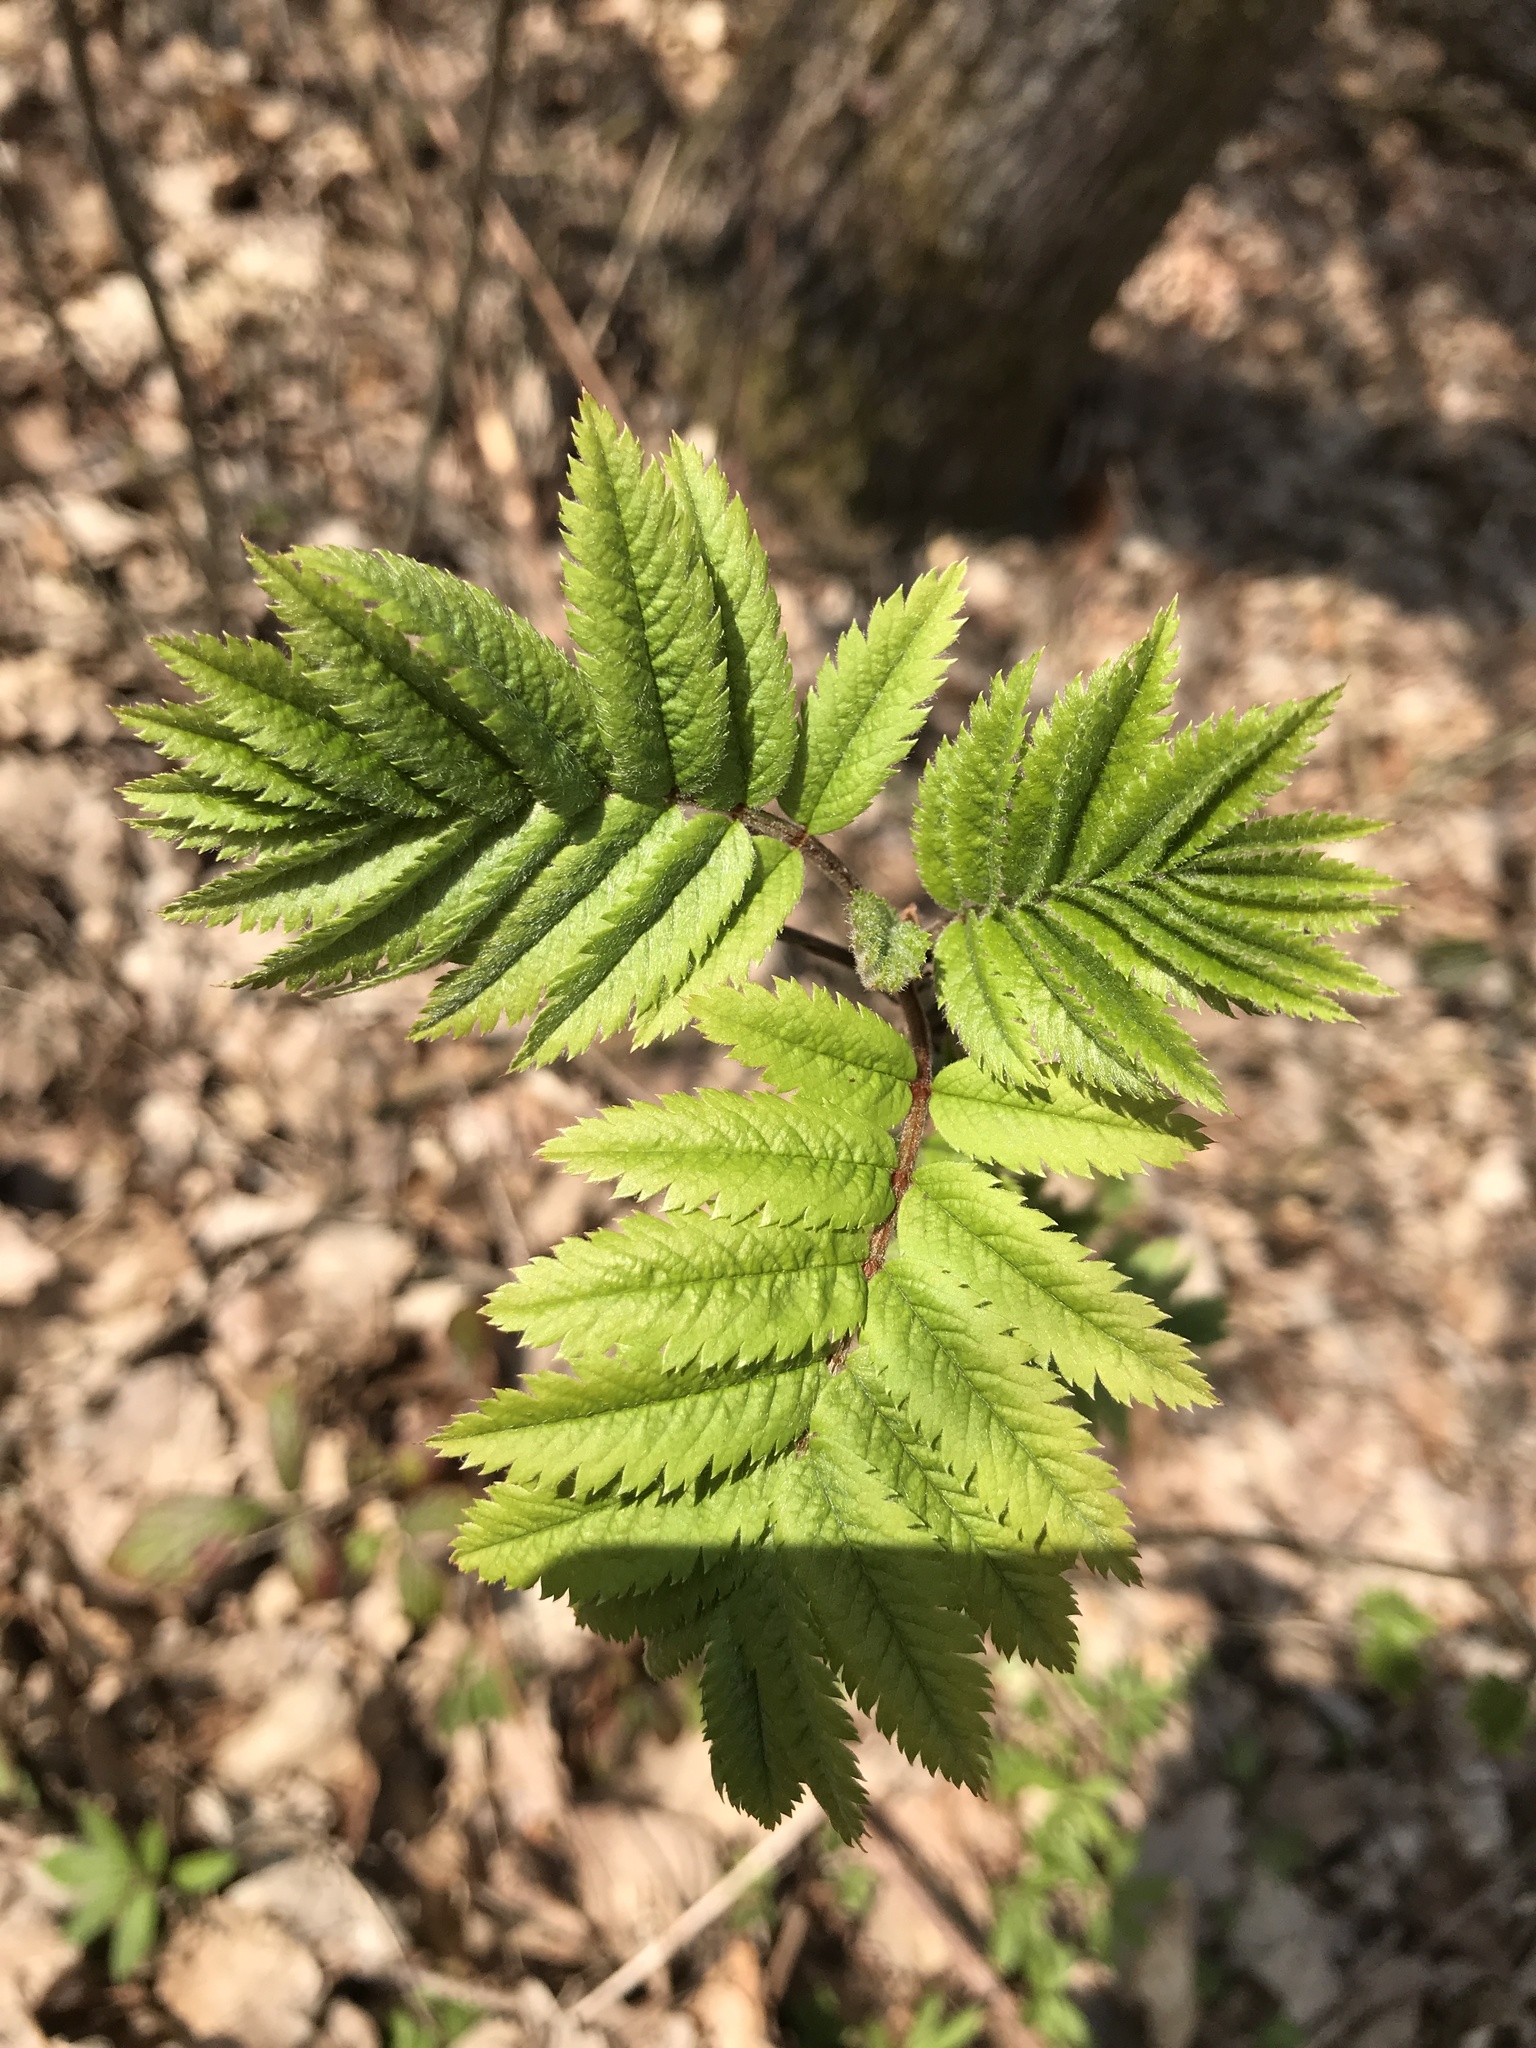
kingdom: Plantae
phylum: Tracheophyta
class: Magnoliopsida
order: Rosales
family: Rosaceae
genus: Sorbus
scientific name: Sorbus aucuparia
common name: Rowan
